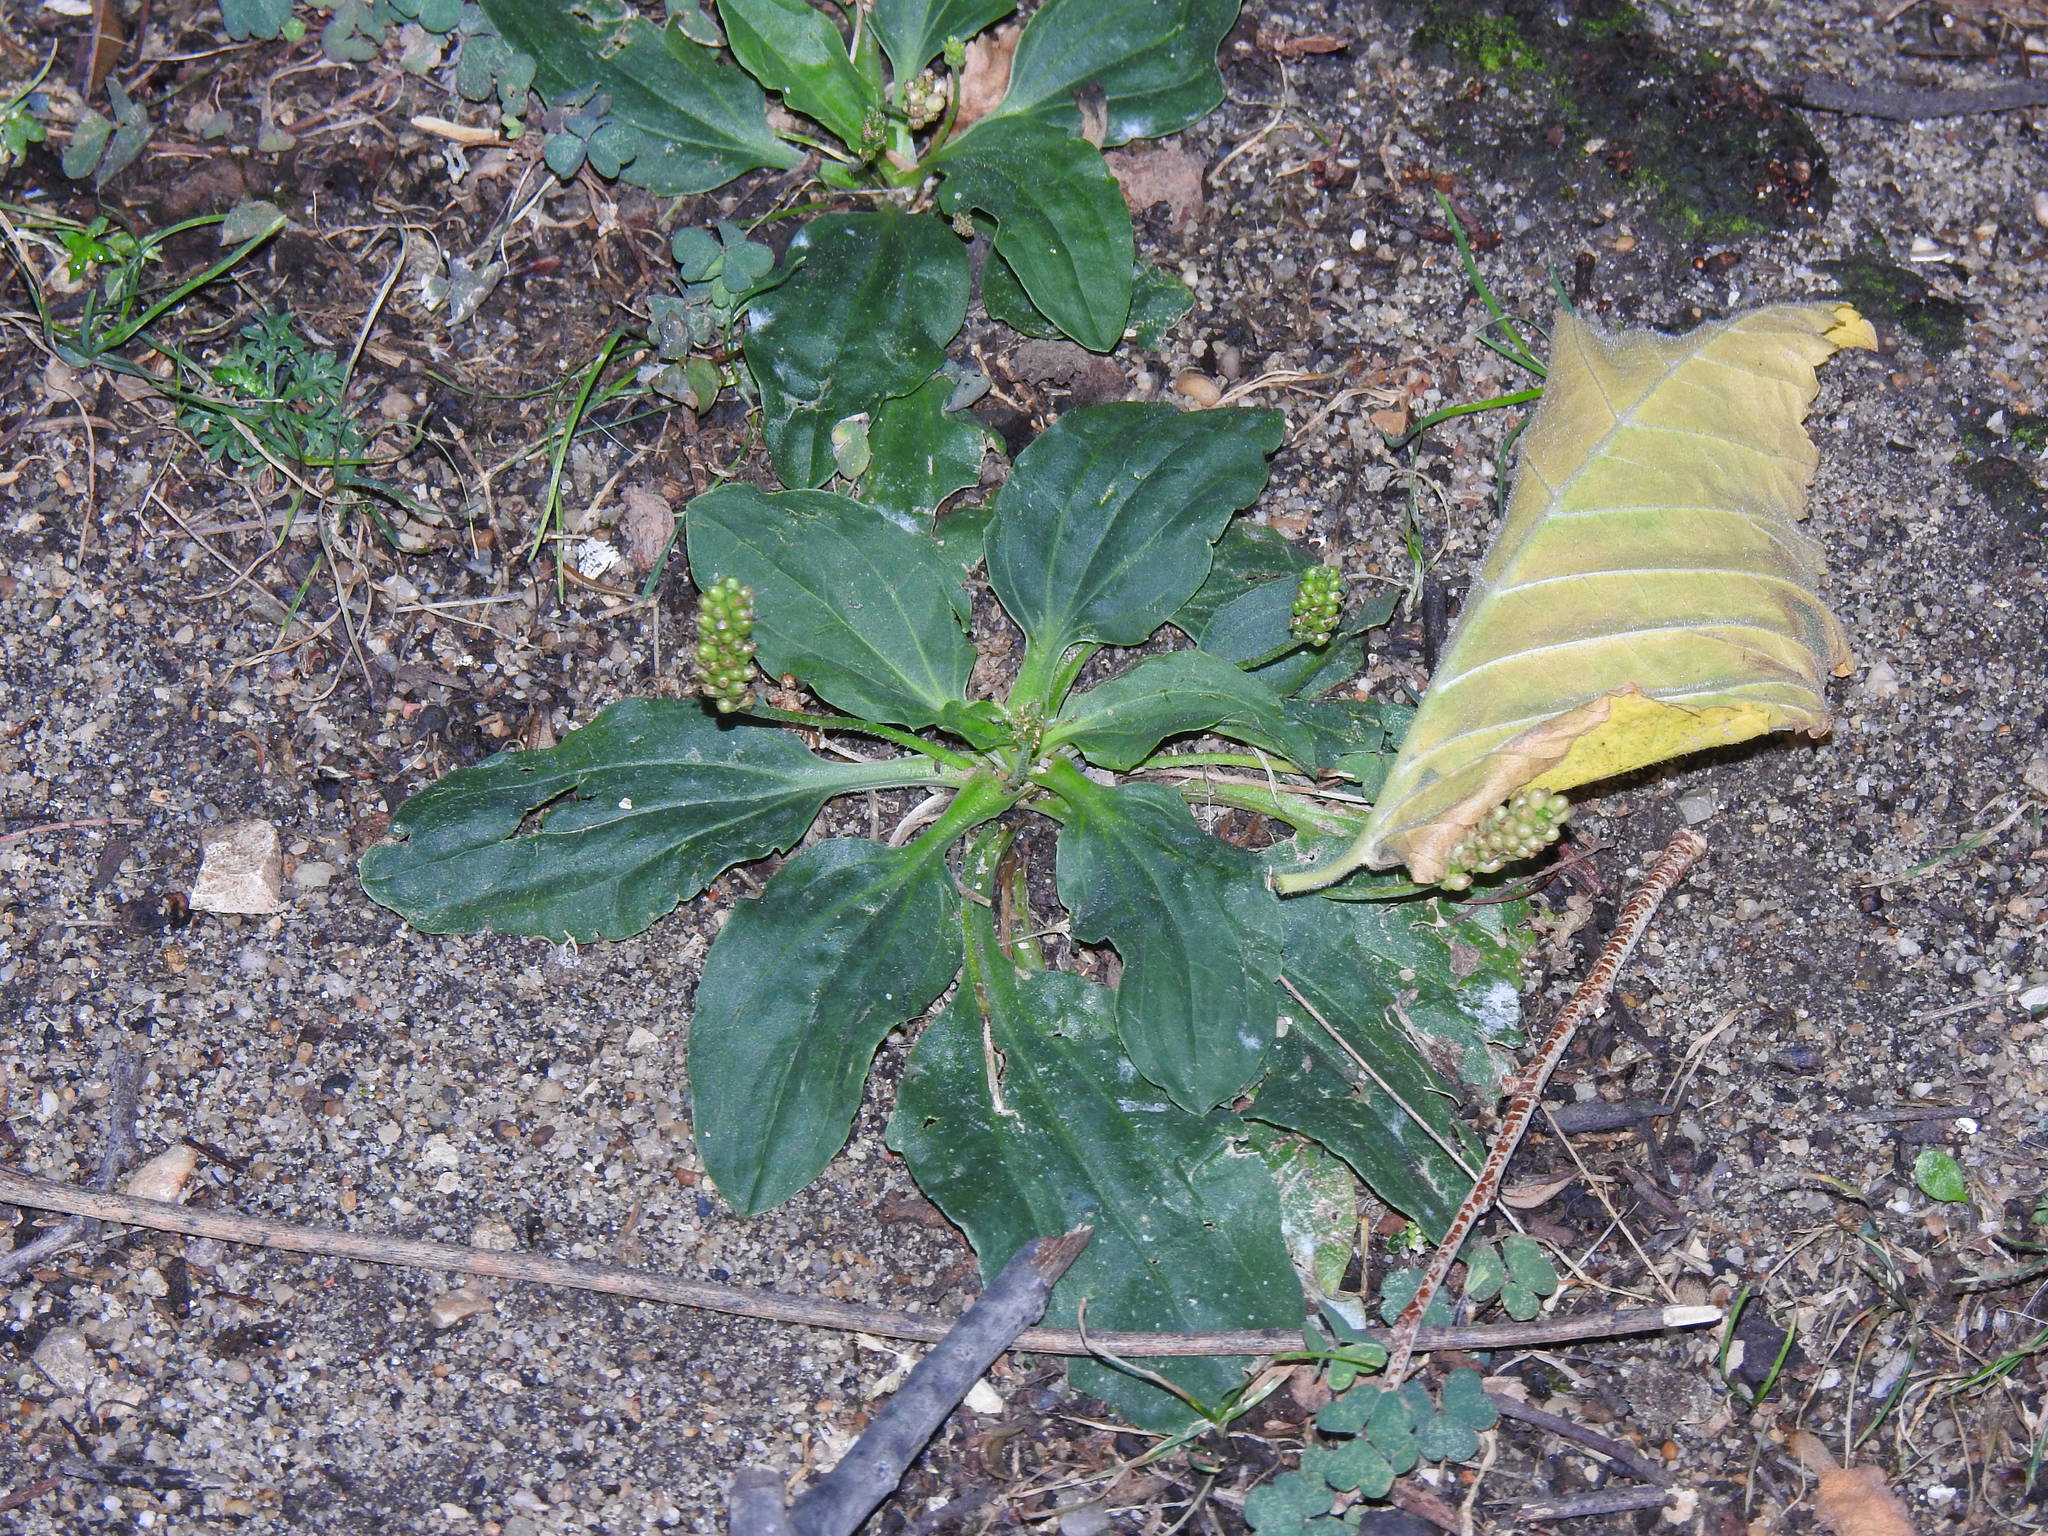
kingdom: Plantae
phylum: Tracheophyta
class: Magnoliopsida
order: Lamiales
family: Plantaginaceae
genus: Plantago
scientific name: Plantago major
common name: Common plantain
